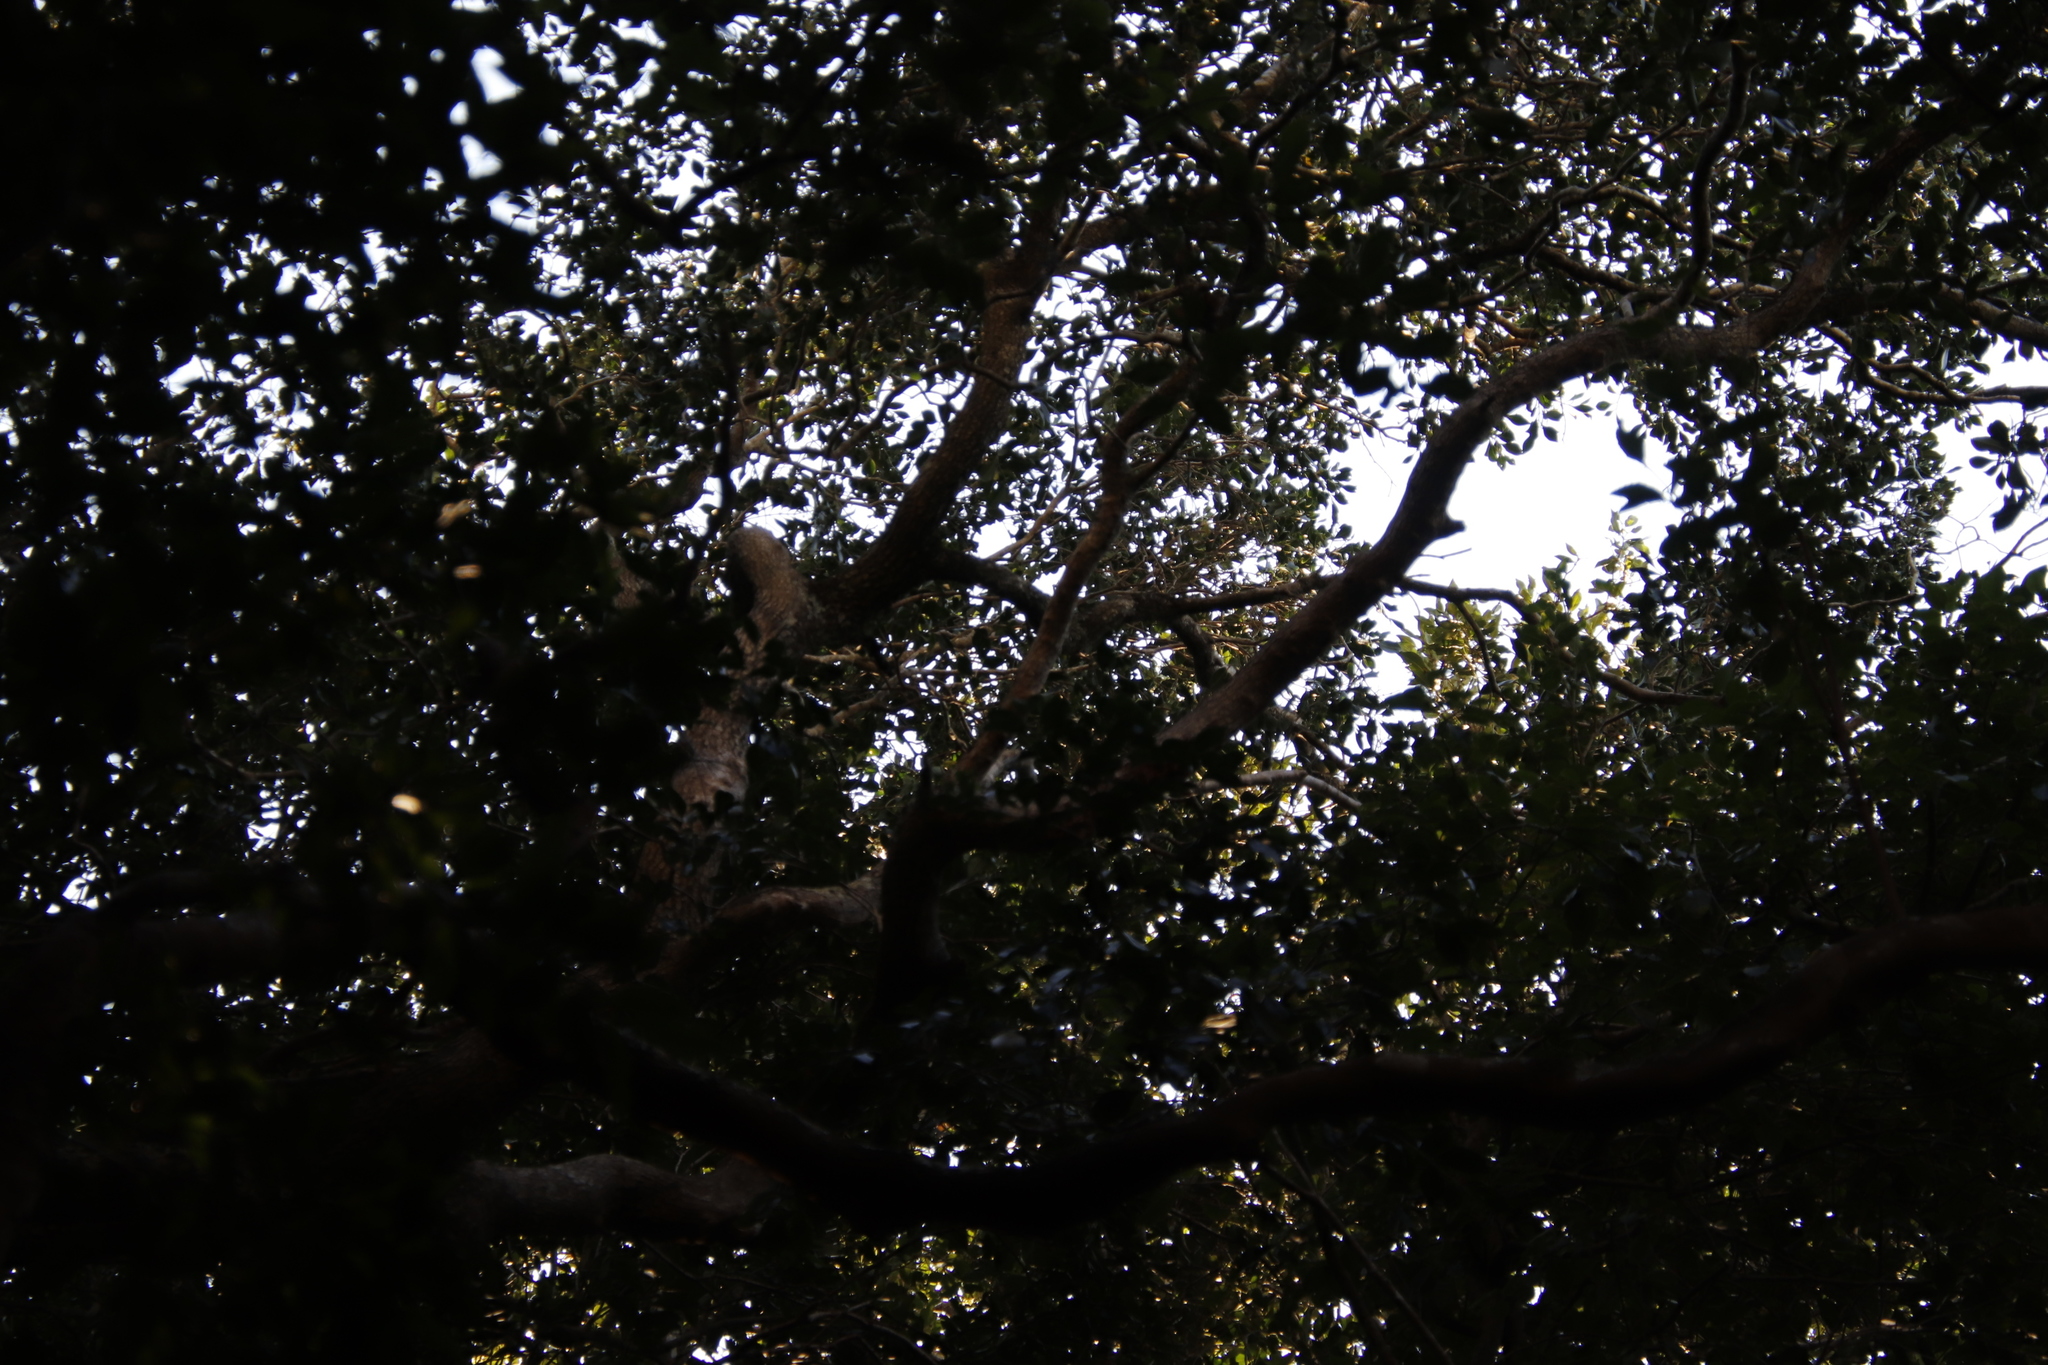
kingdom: Plantae
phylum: Tracheophyta
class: Magnoliopsida
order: Celastrales
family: Celastraceae
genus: Cassine
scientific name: Cassine peragua
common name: Cape saffron
